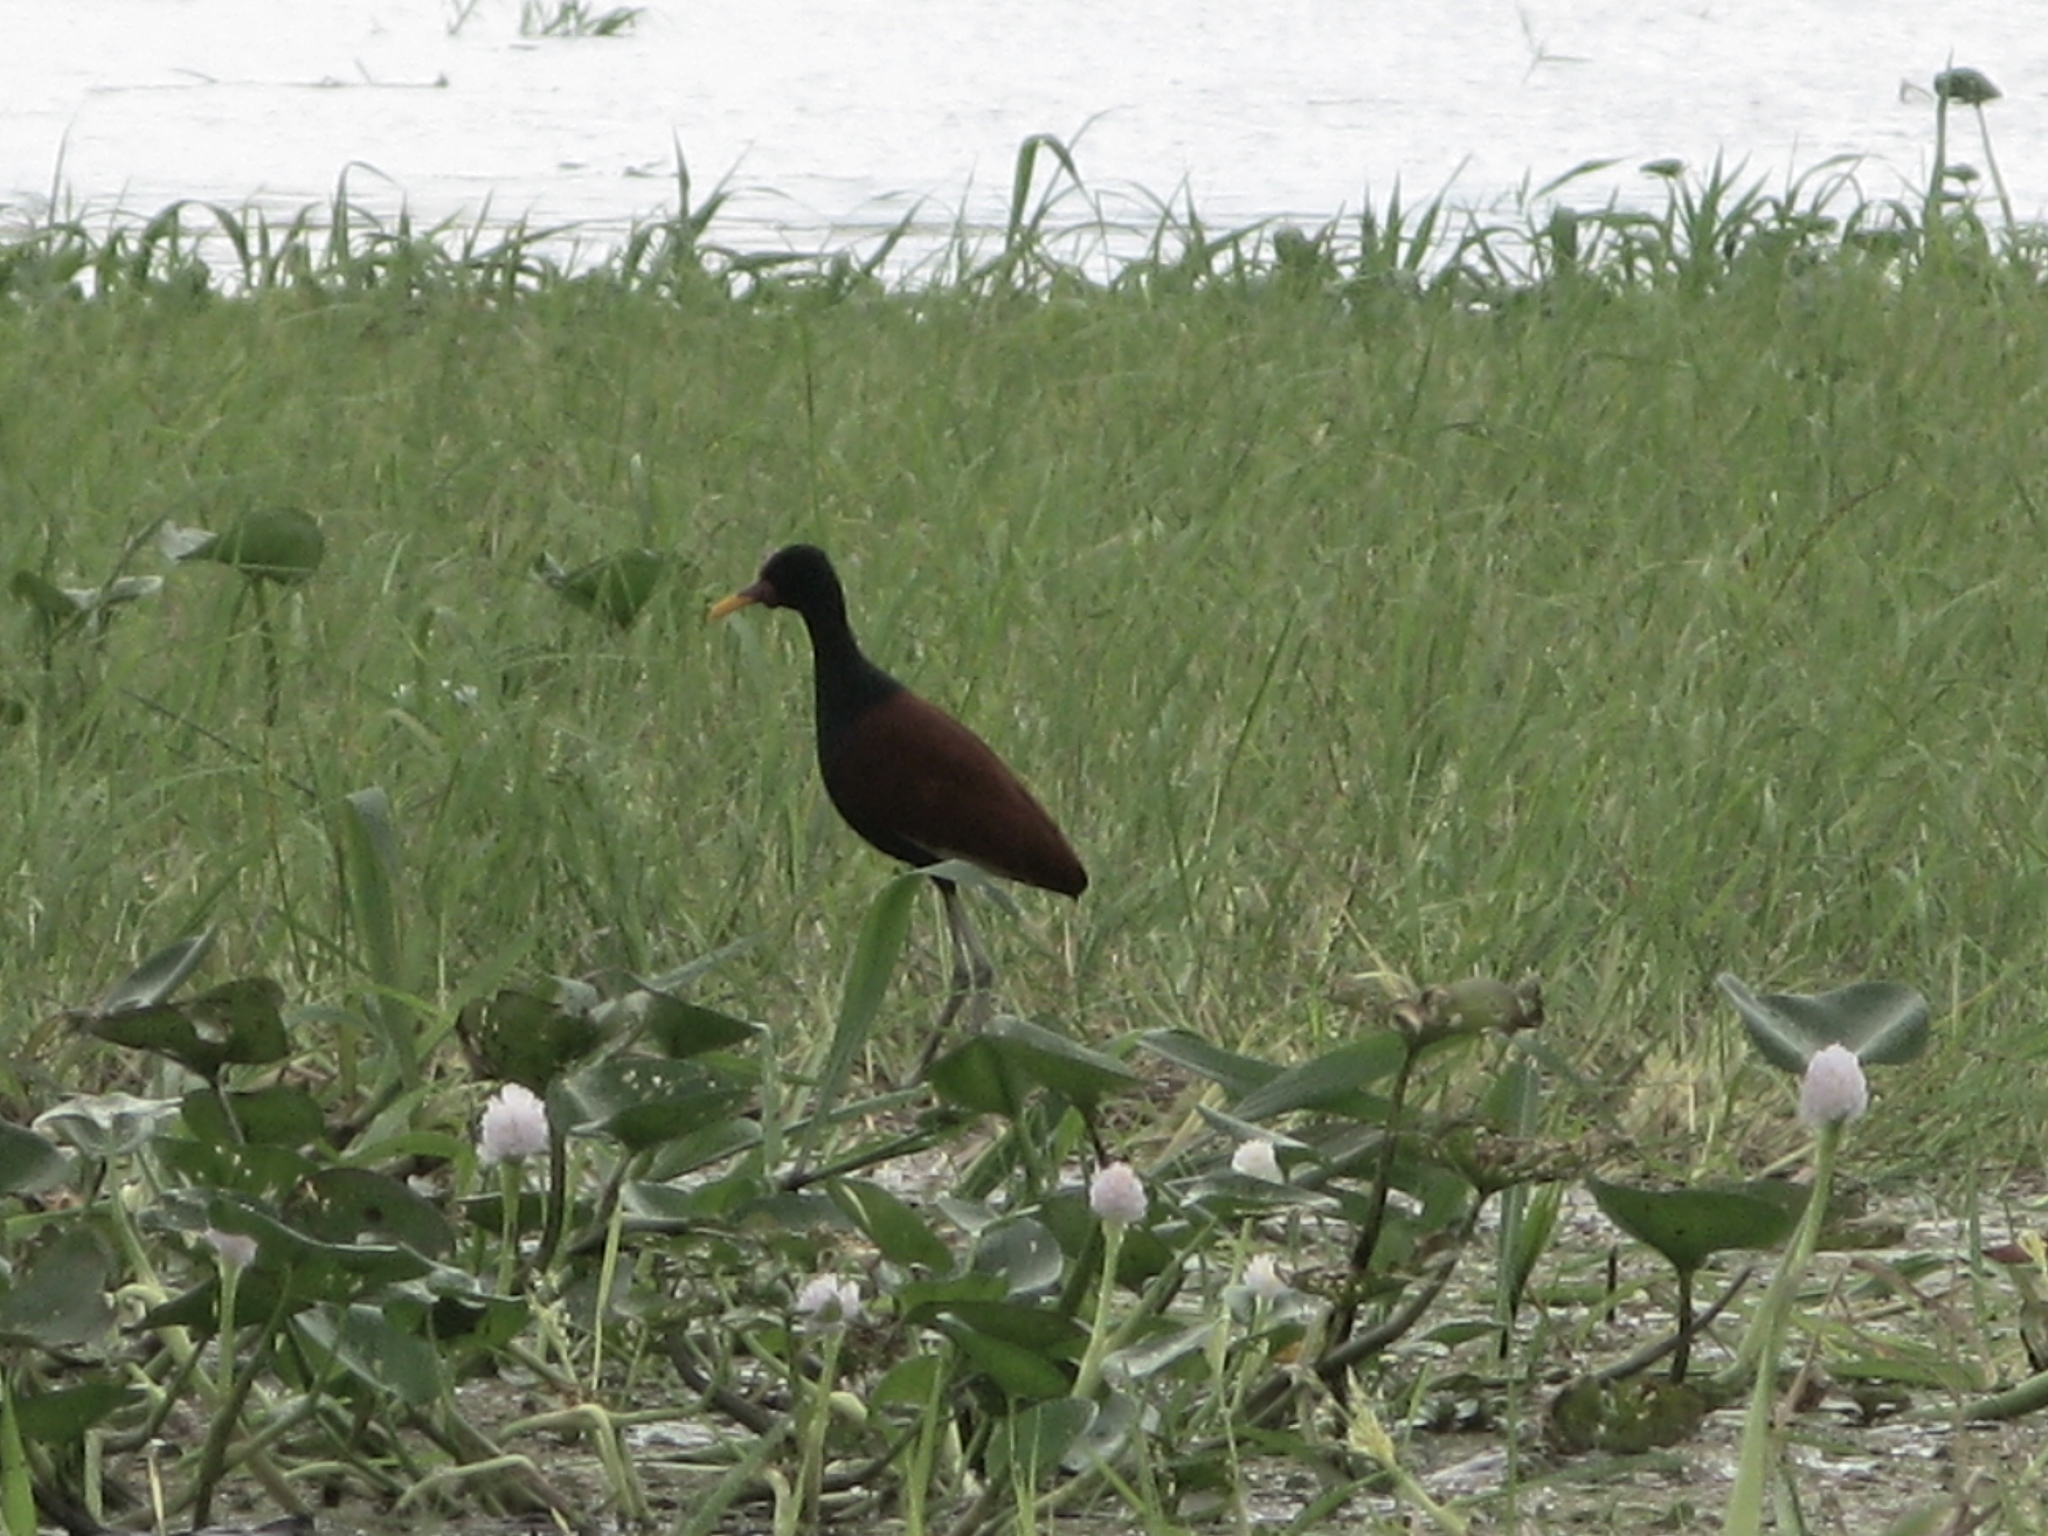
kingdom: Animalia
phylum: Chordata
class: Aves
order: Charadriiformes
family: Jacanidae
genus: Jacana
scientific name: Jacana jacana
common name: Wattled jacana
